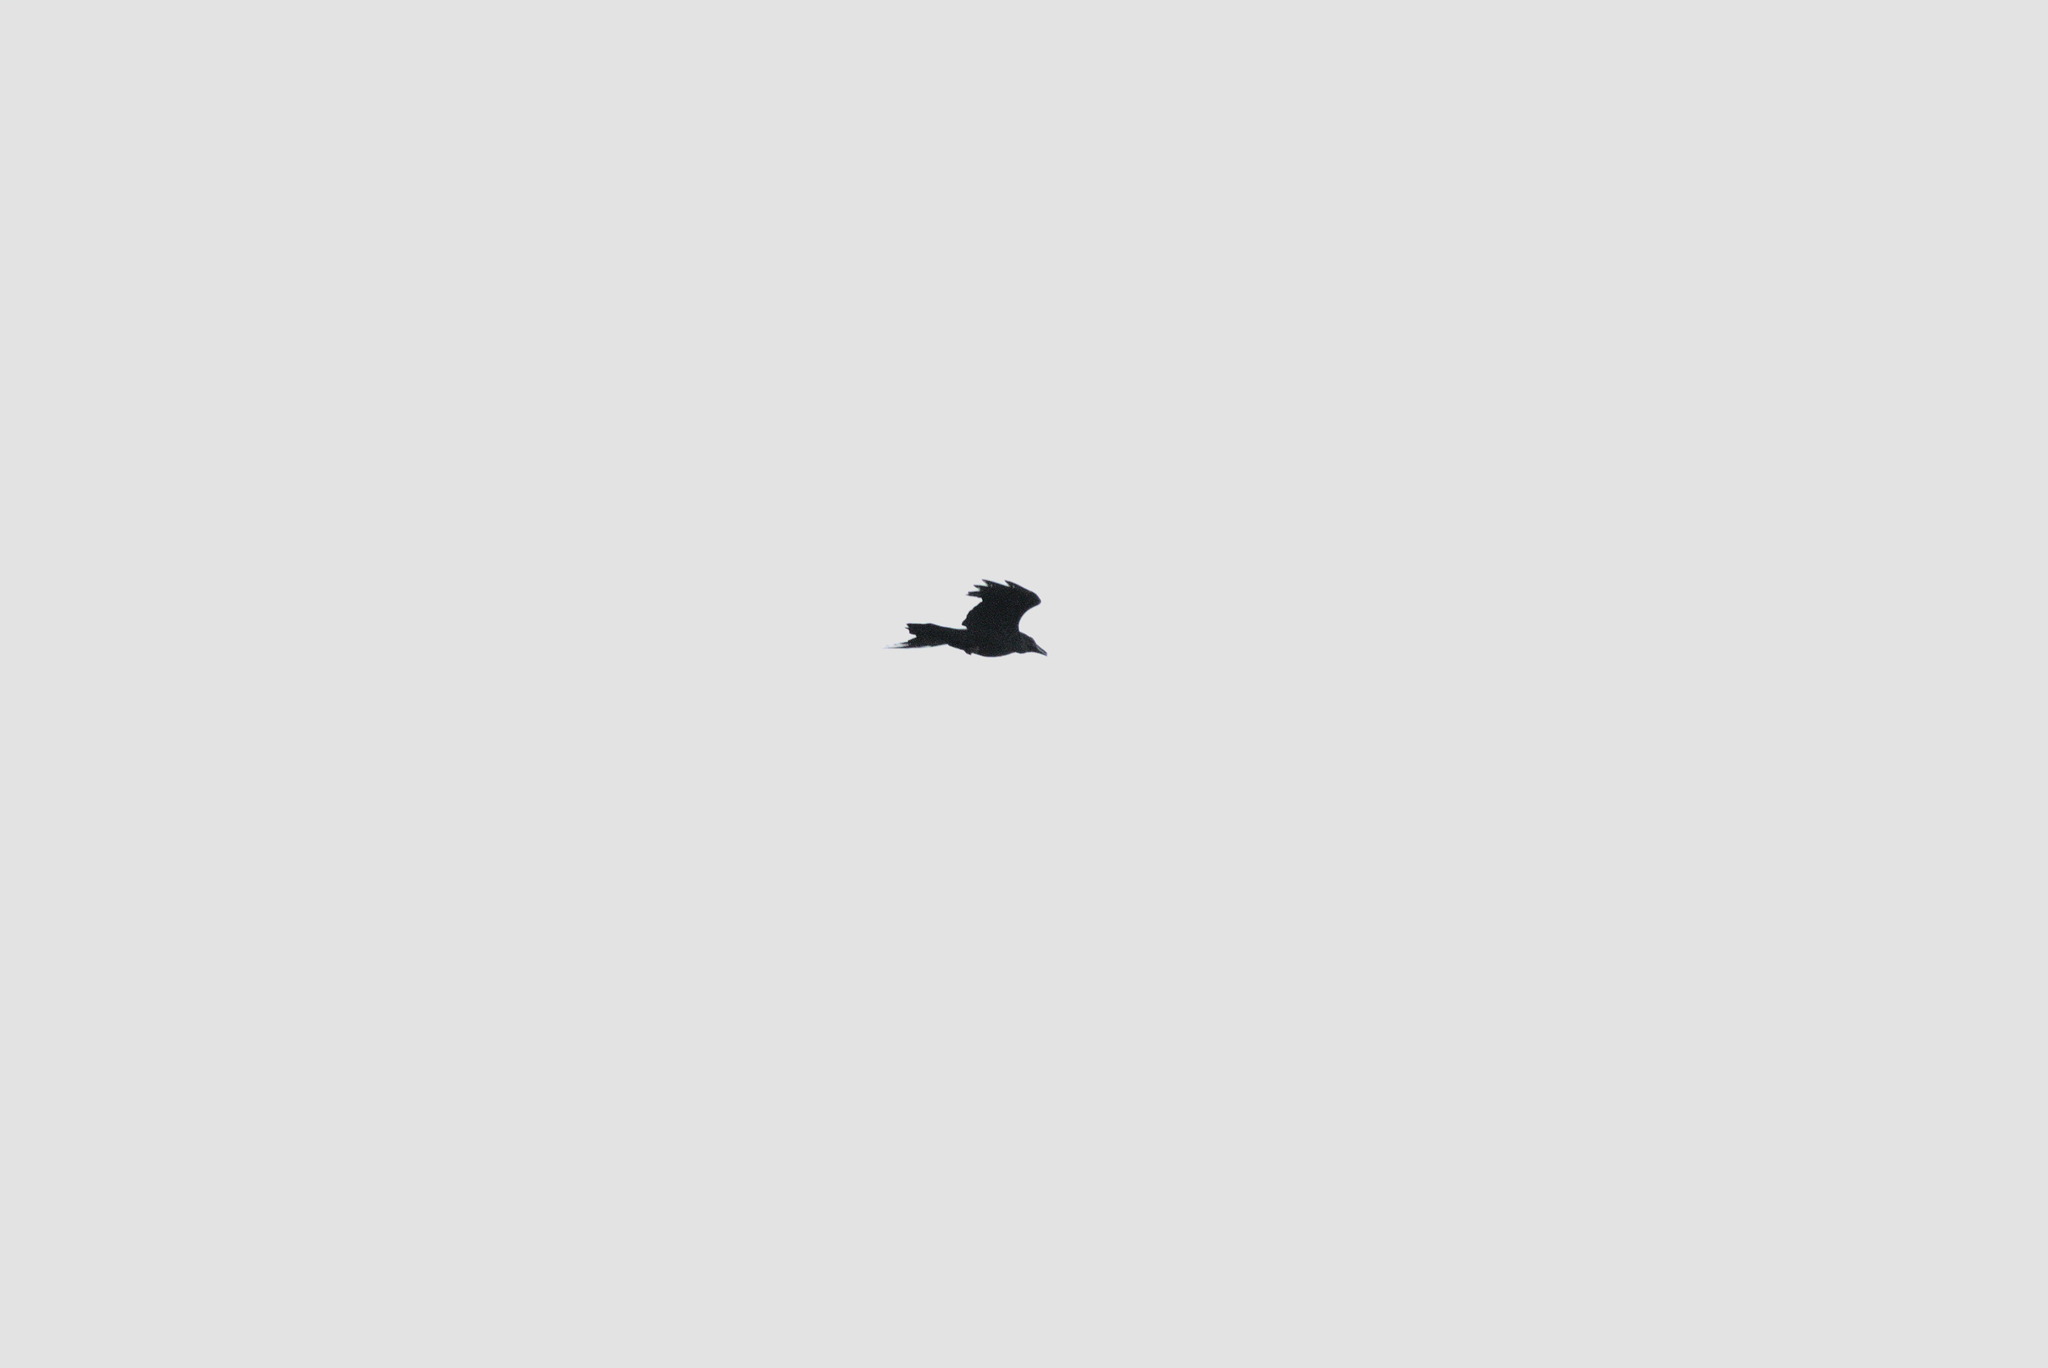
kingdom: Animalia
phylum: Chordata
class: Aves
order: Passeriformes
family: Corvidae
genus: Corvus
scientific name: Corvus corax
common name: Common raven
